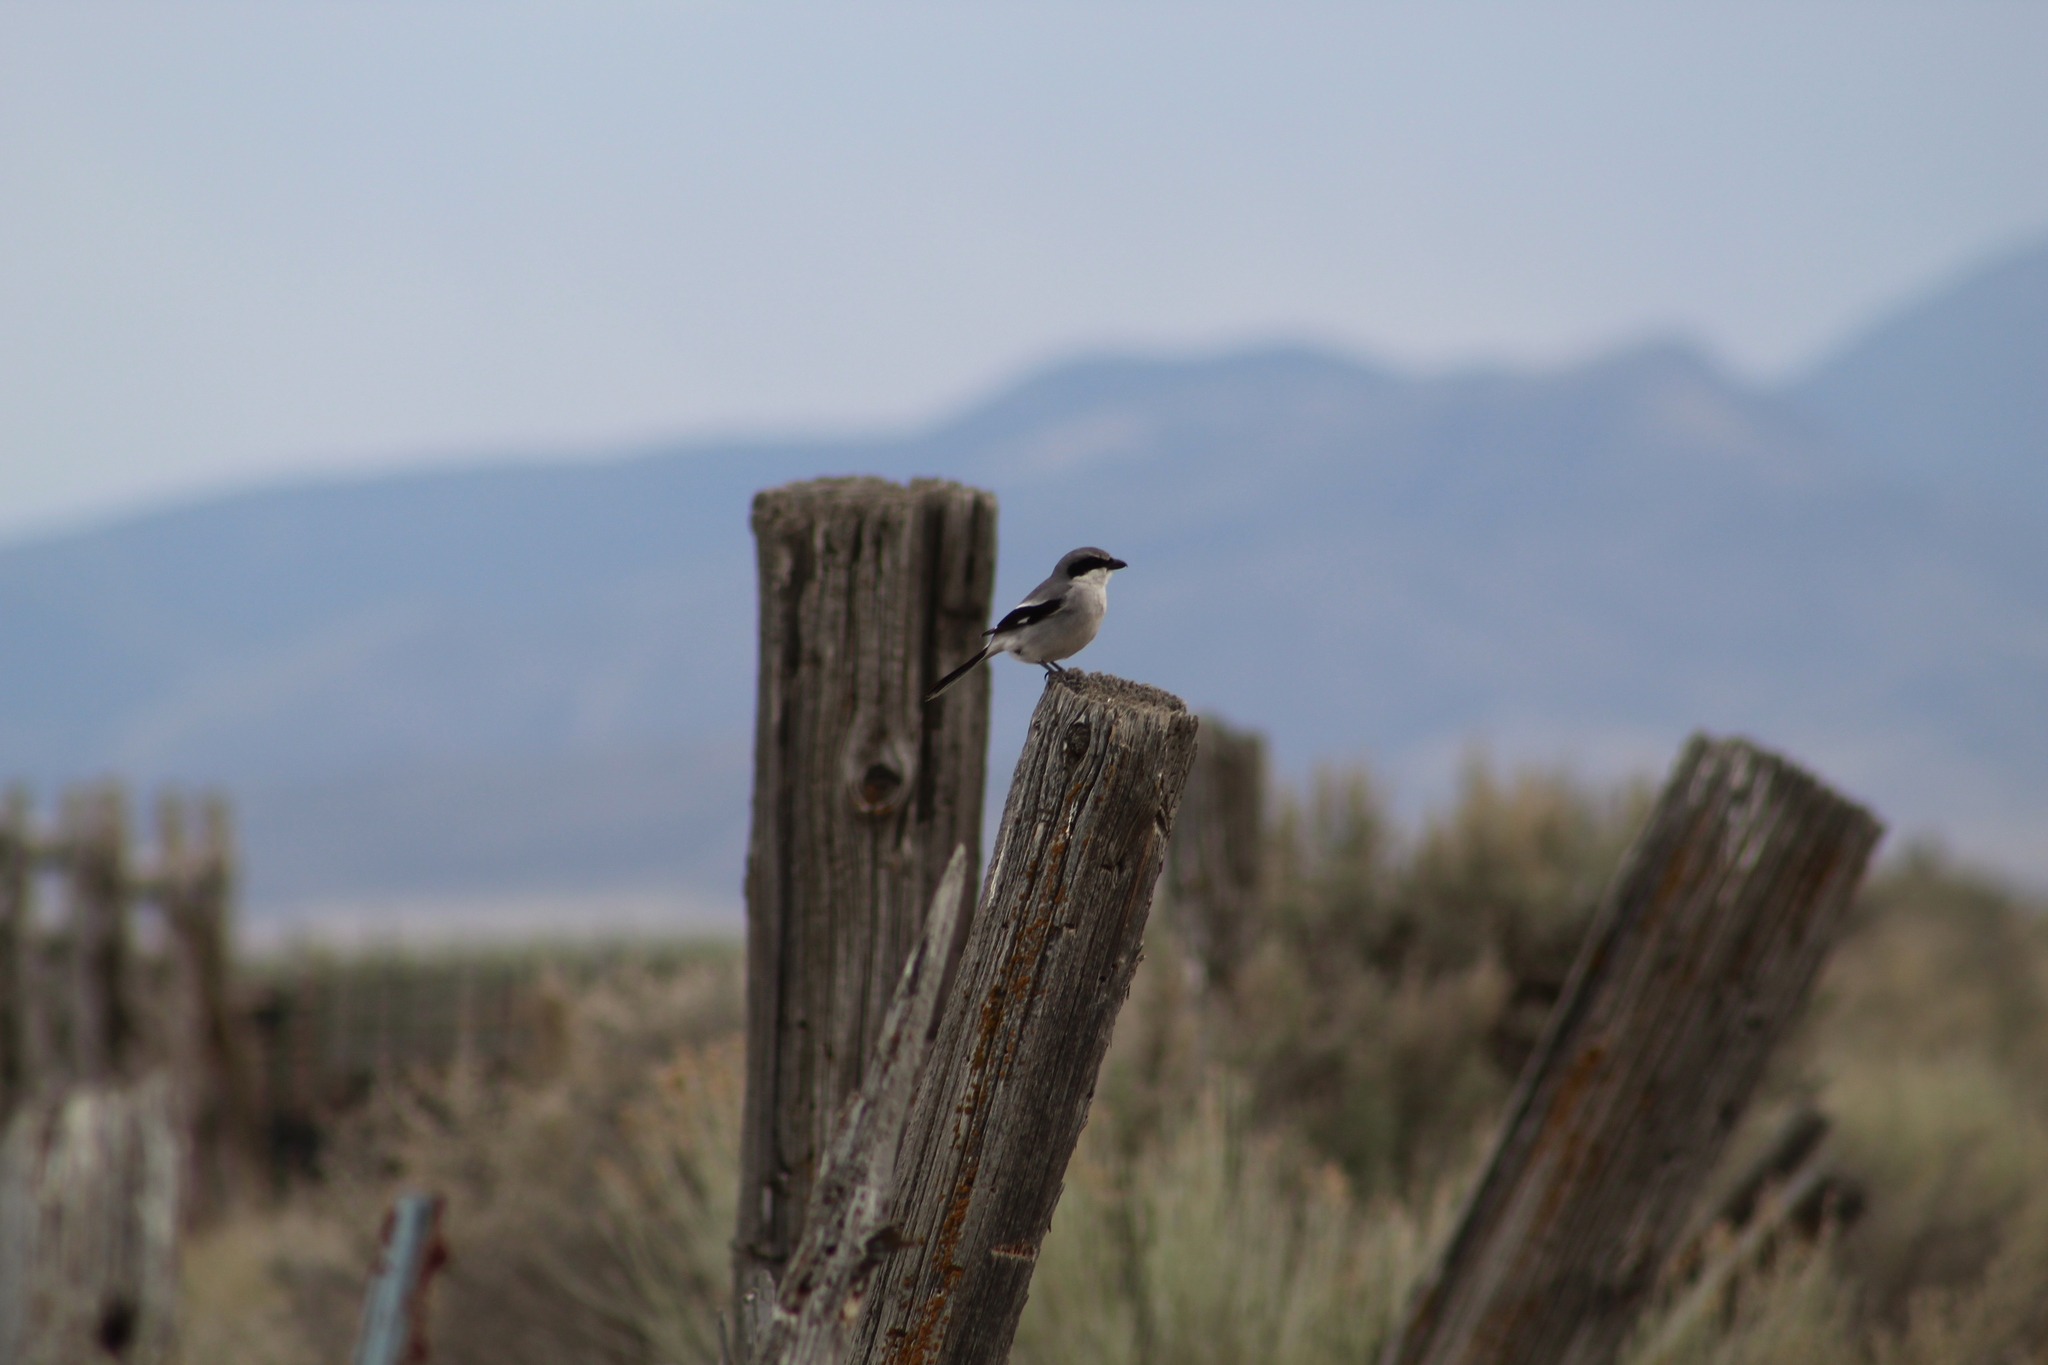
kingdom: Animalia
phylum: Chordata
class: Aves
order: Passeriformes
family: Laniidae
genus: Lanius
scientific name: Lanius ludovicianus
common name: Loggerhead shrike
